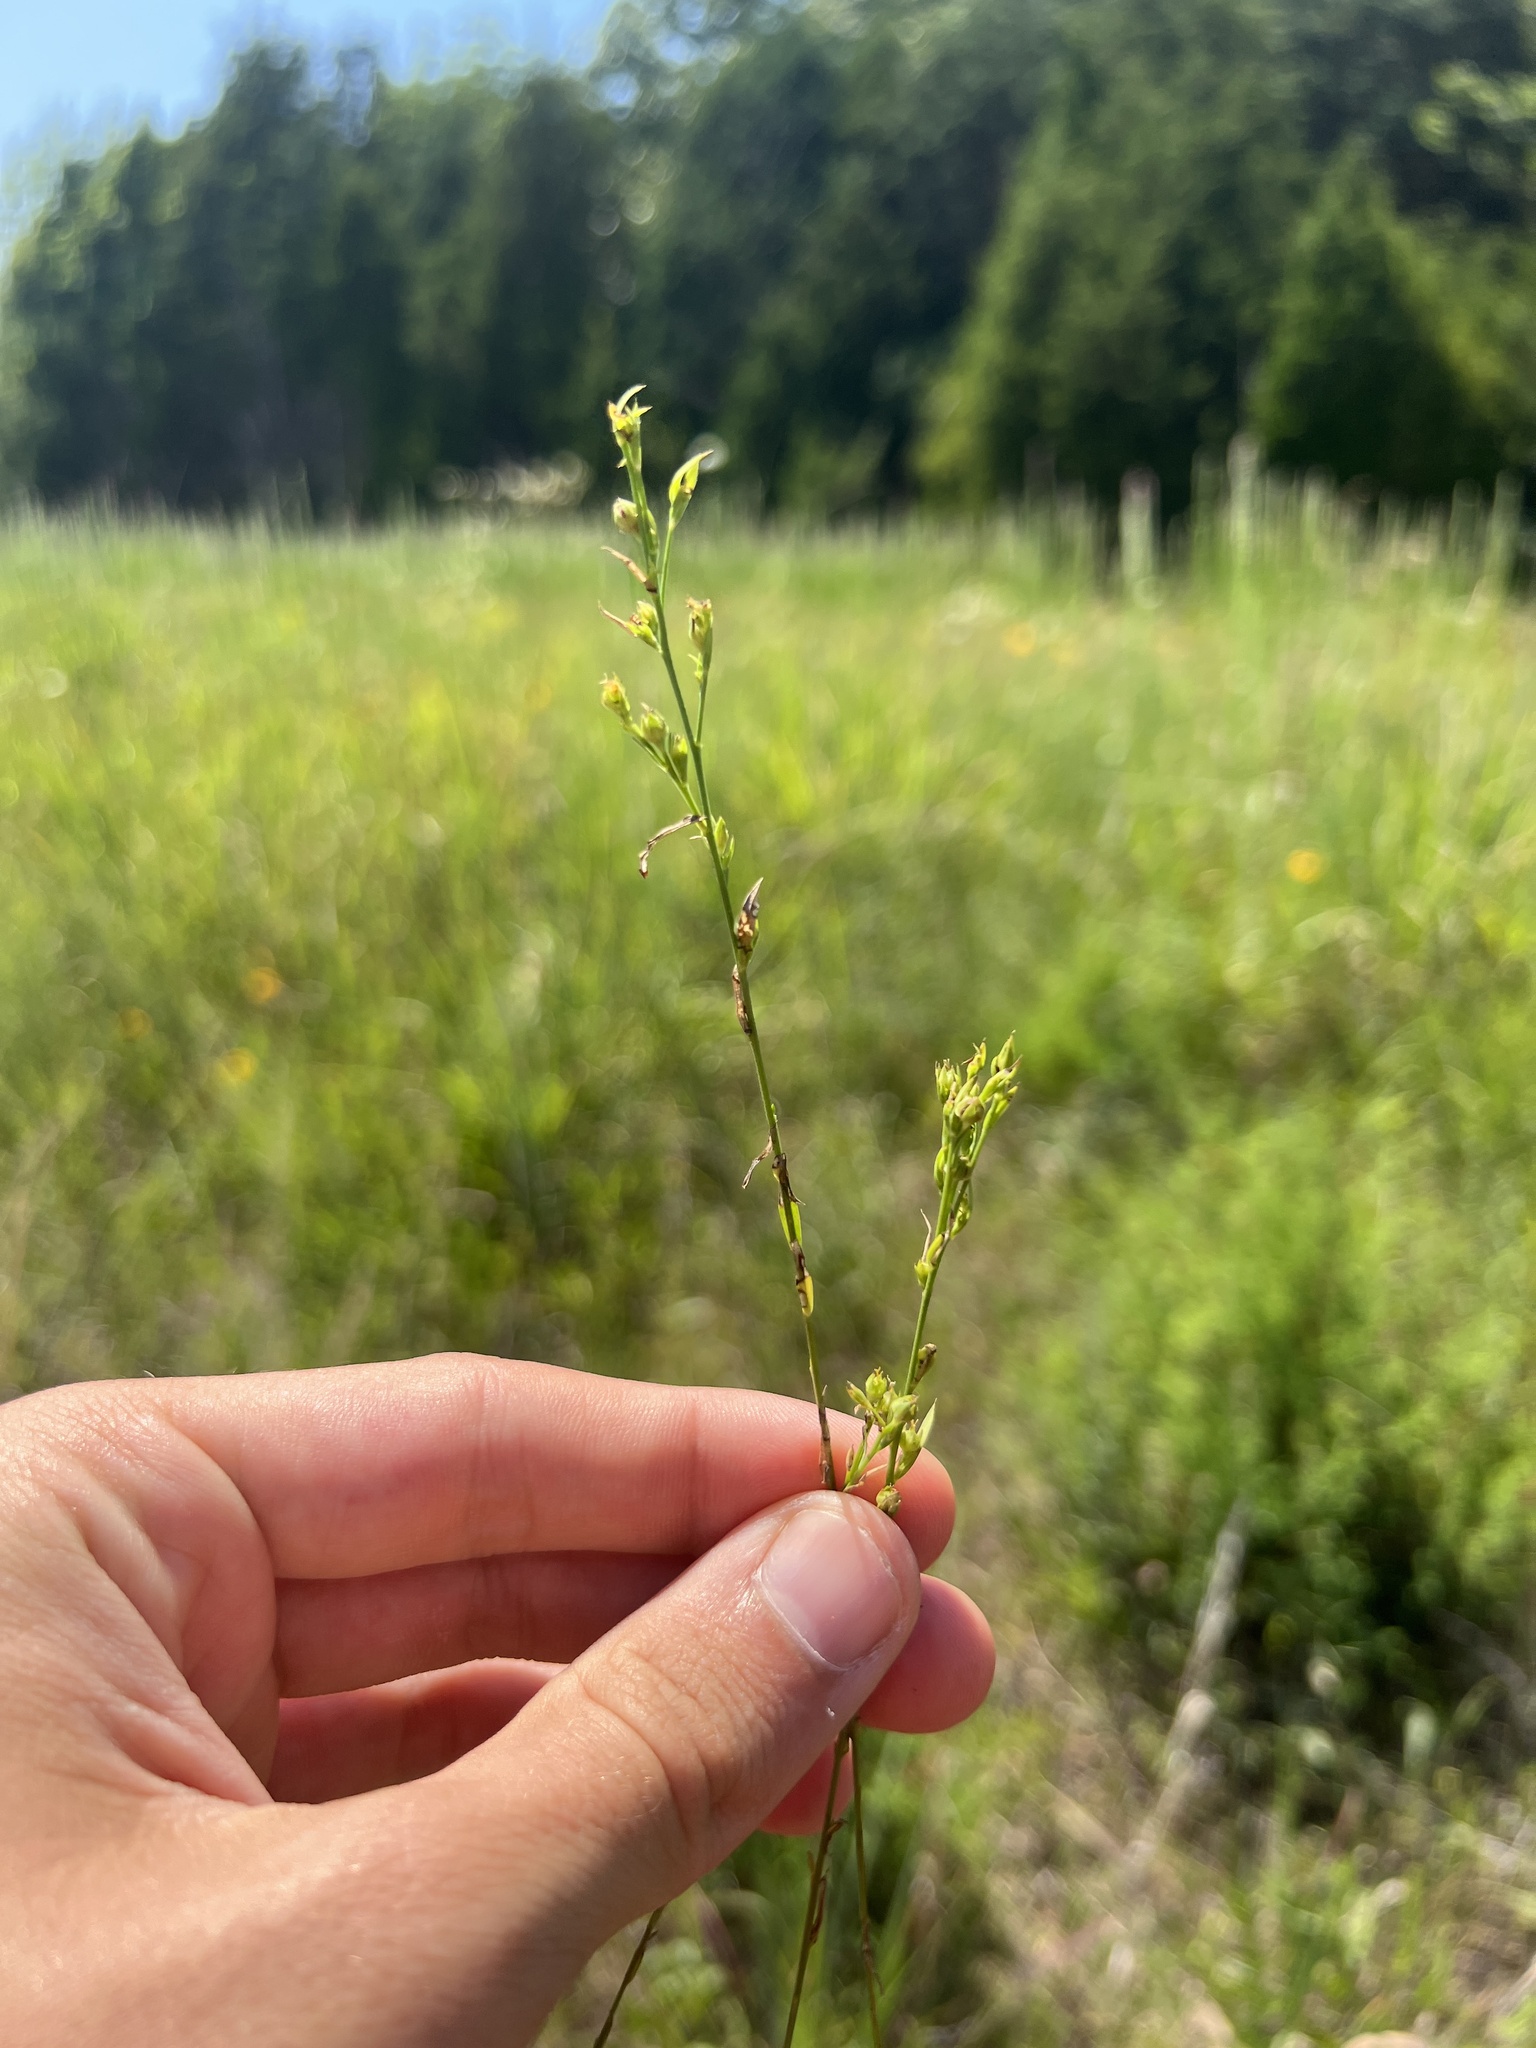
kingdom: Plantae
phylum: Tracheophyta
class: Magnoliopsida
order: Malpighiales
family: Linaceae
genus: Linum
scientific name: Linum medium
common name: Stiff yellow flax
